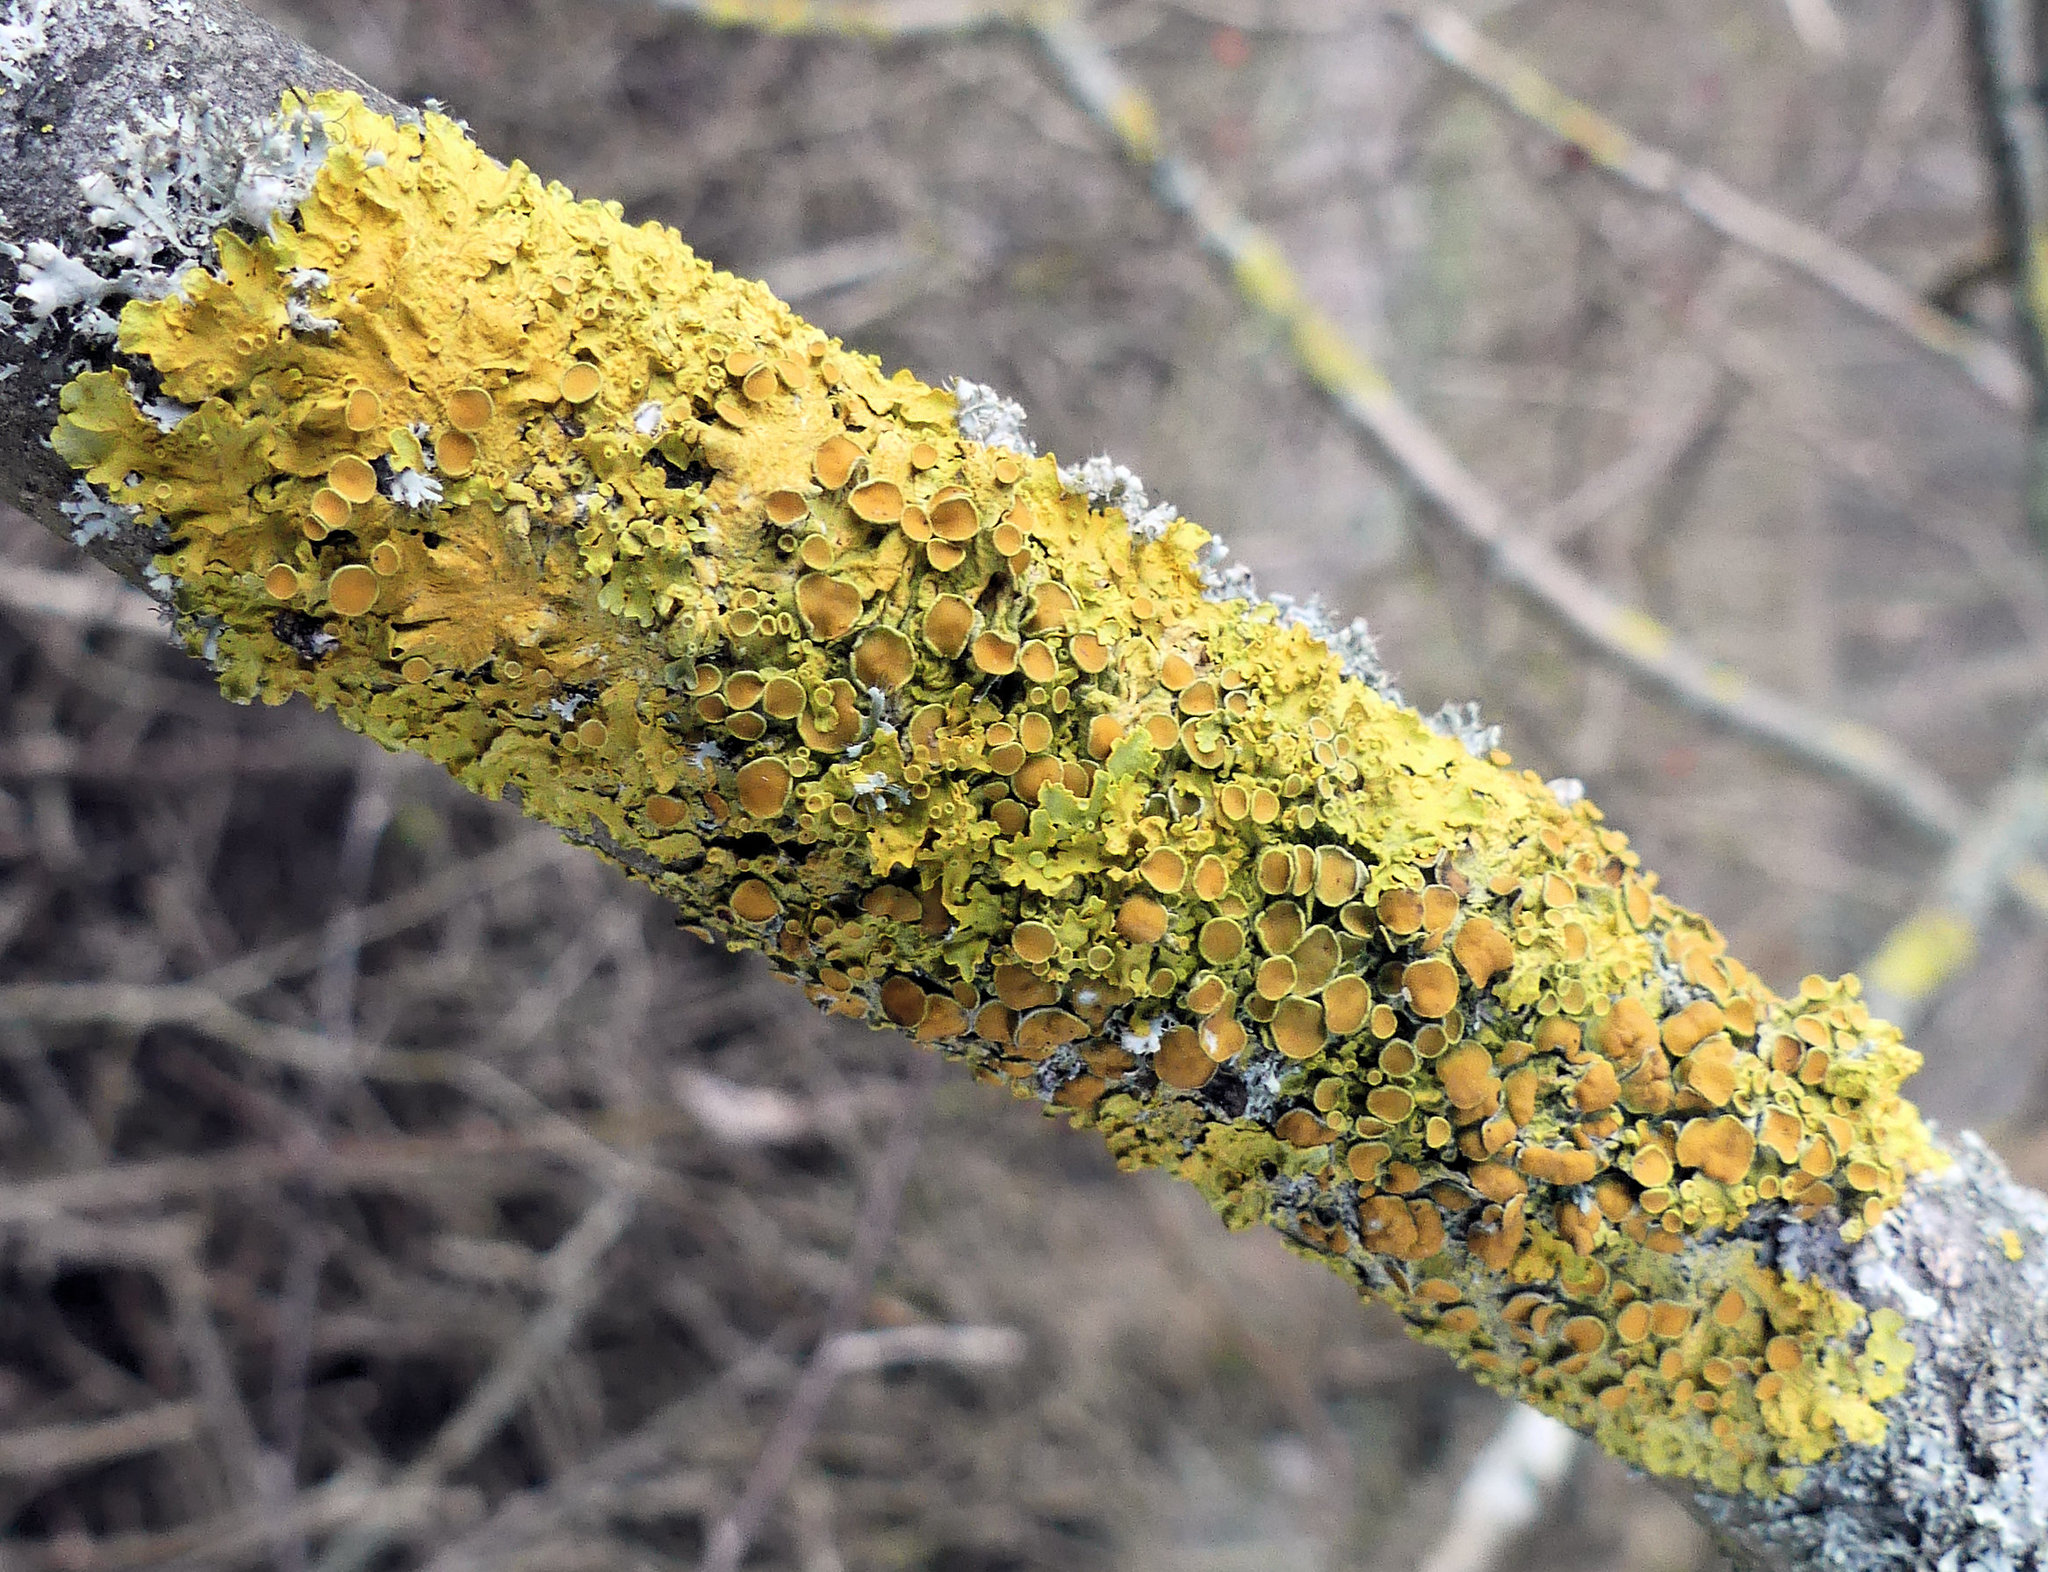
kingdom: Fungi
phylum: Ascomycota
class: Lecanoromycetes
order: Teloschistales
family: Teloschistaceae
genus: Xanthoria
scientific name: Xanthoria parietina
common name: Common orange lichen
